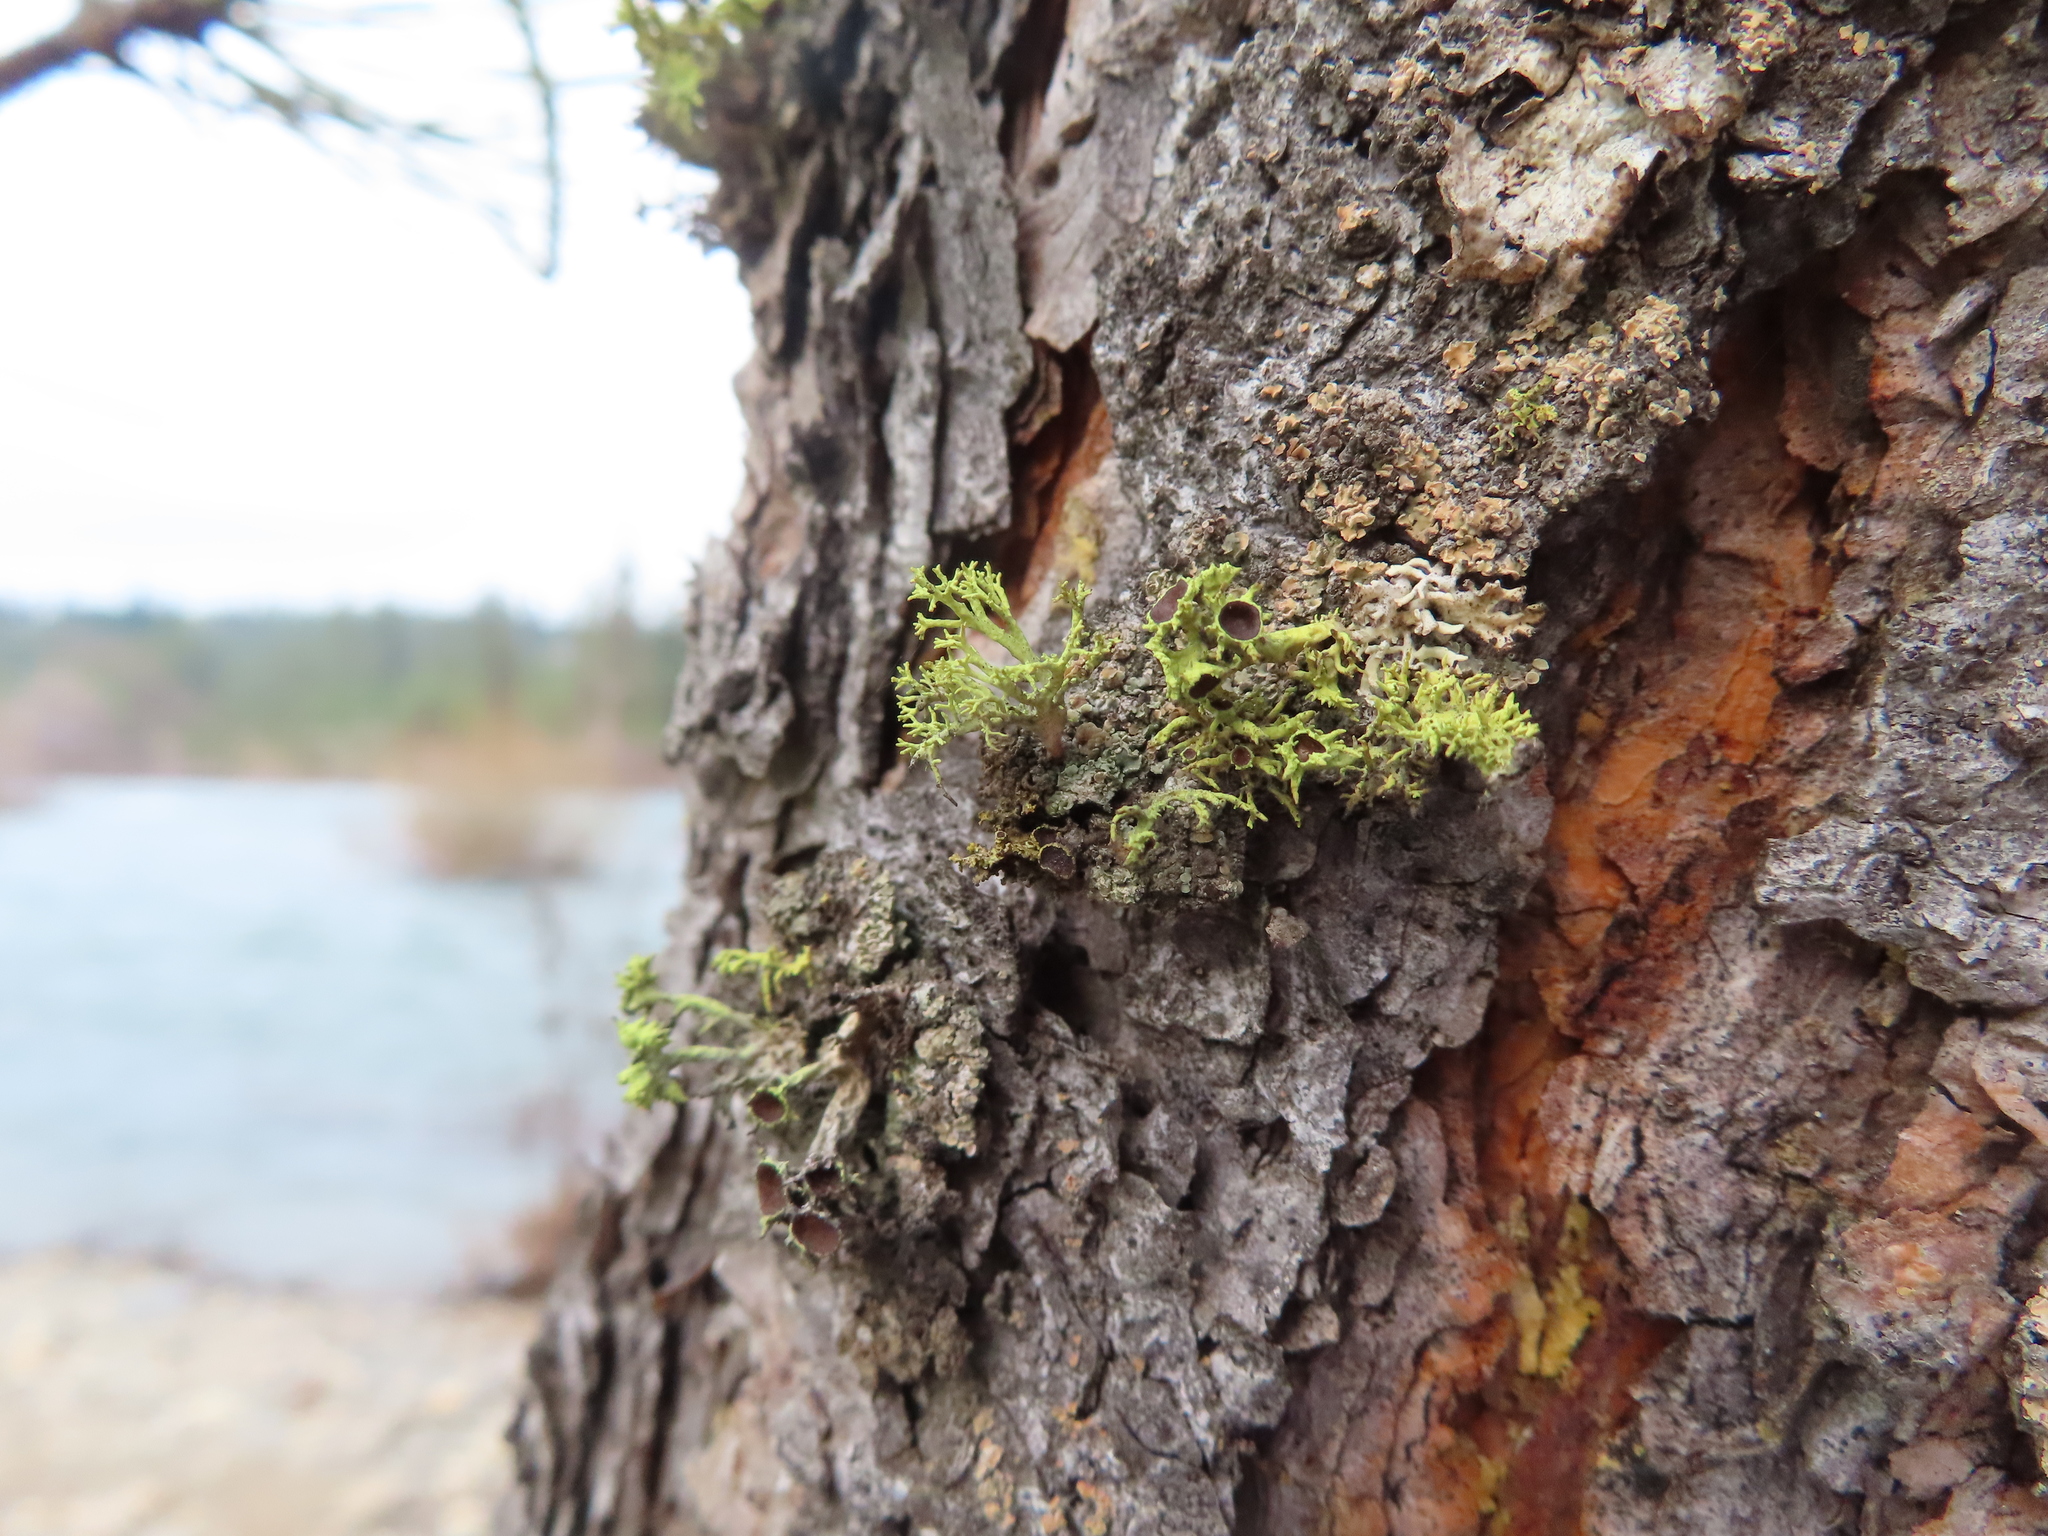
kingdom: Fungi
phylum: Ascomycota
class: Lecanoromycetes
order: Lecanorales
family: Parmeliaceae
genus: Letharia
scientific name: Letharia columbiana
